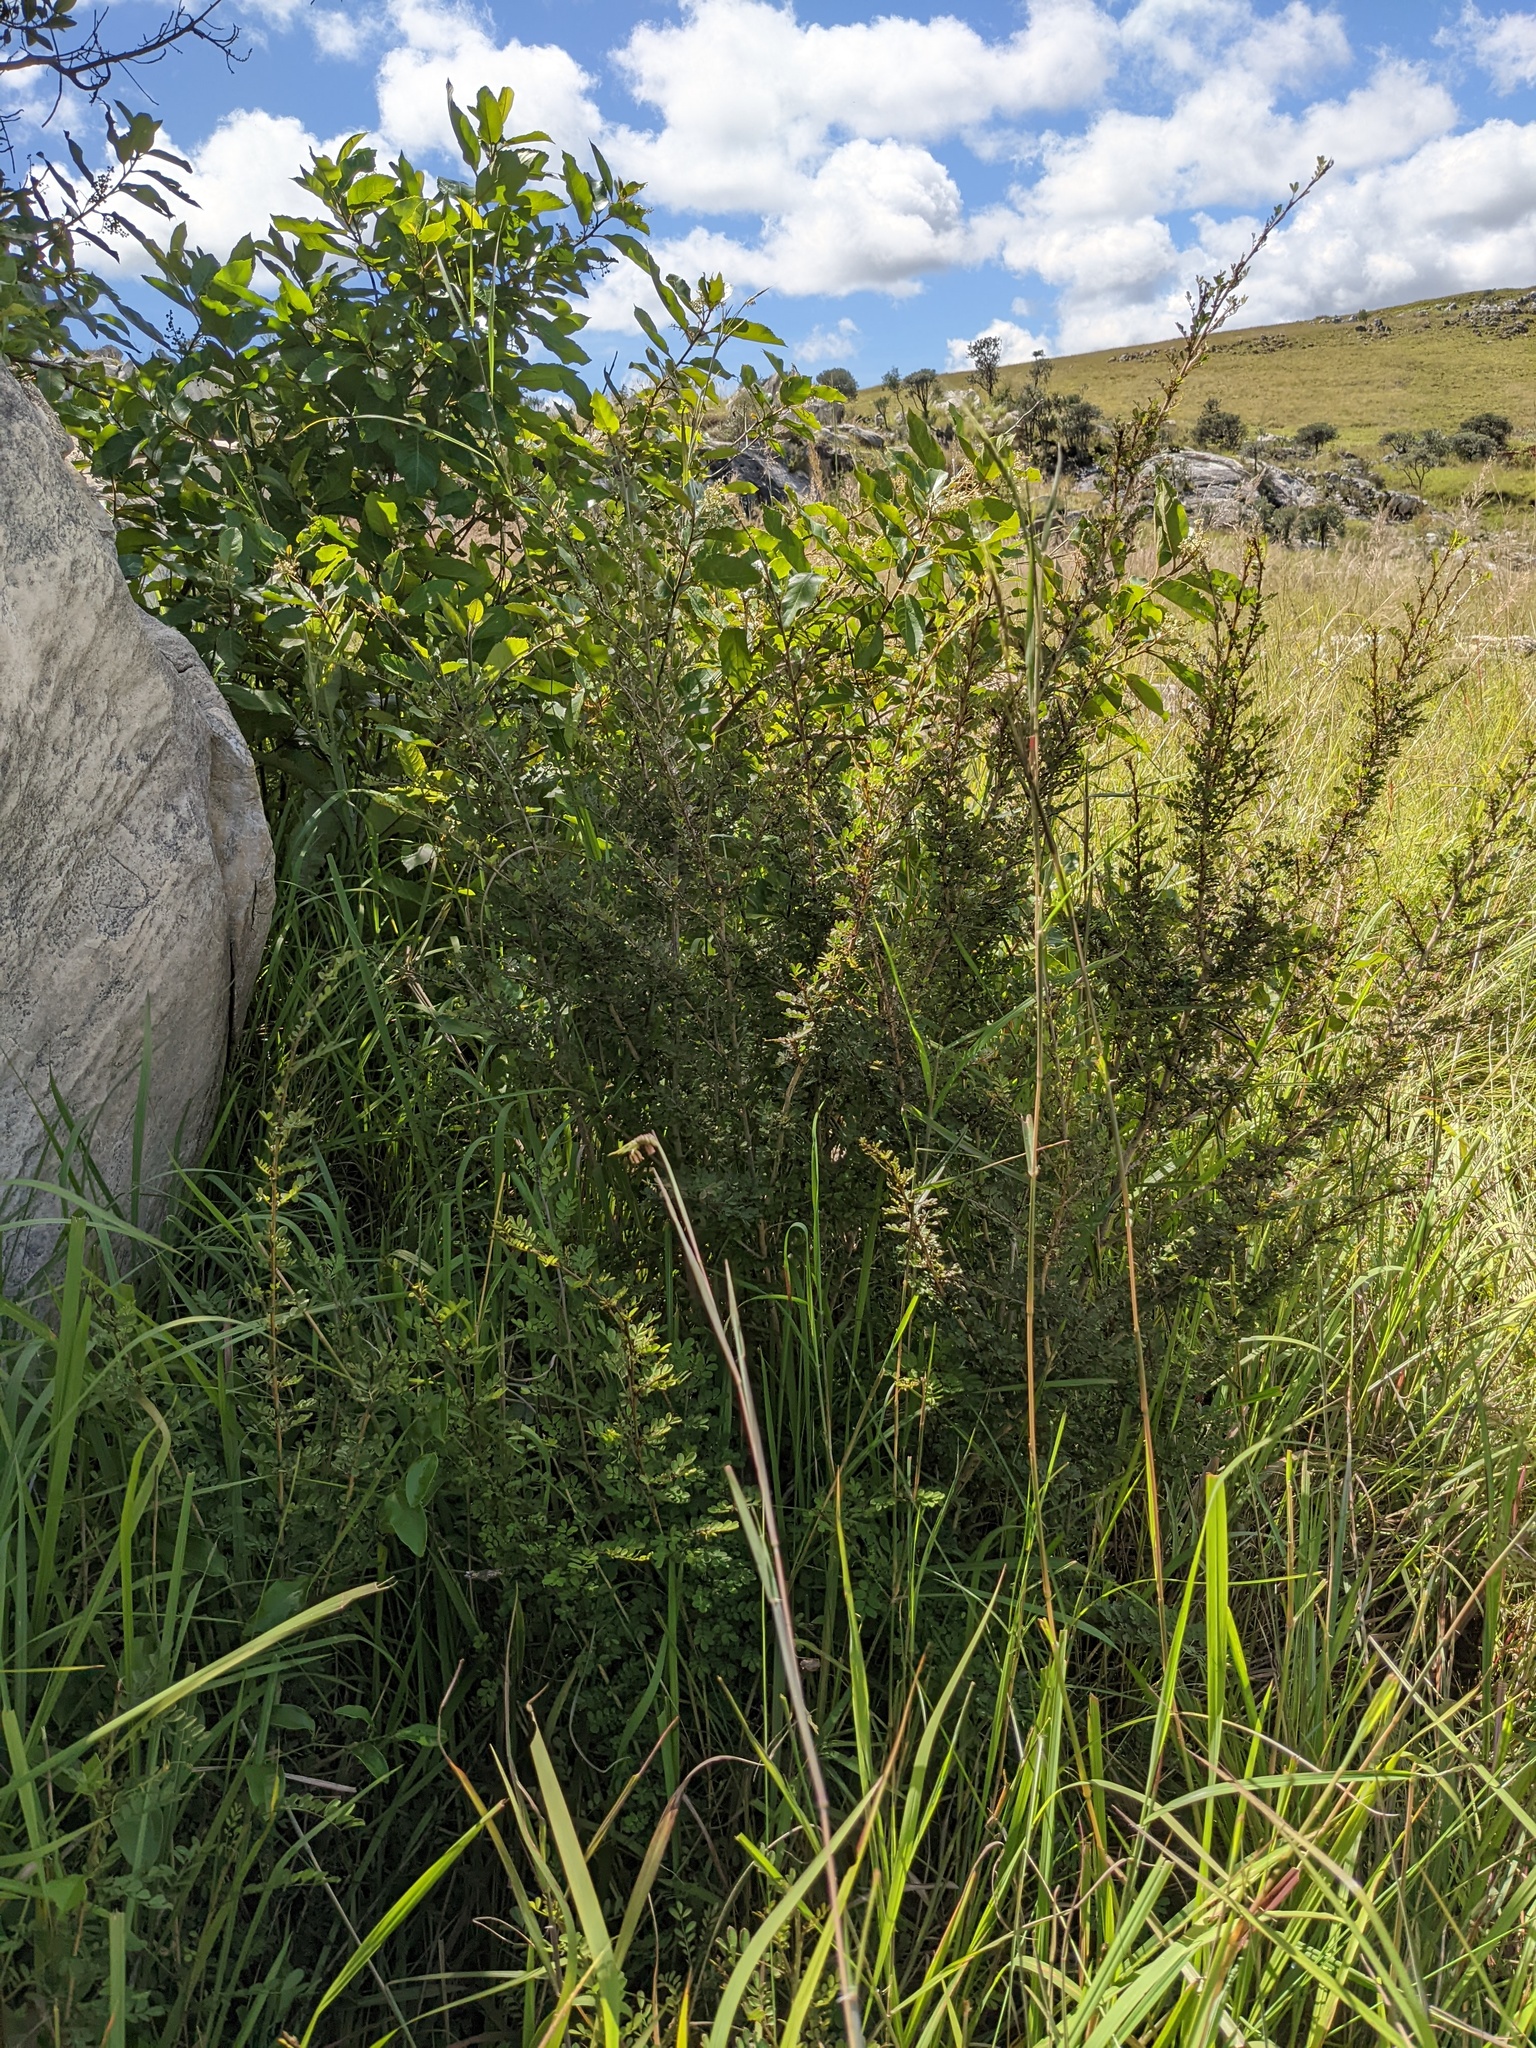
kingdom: Plantae
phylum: Tracheophyta
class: Liliopsida
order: Poales
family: Poaceae
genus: Heteropogon
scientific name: Heteropogon melanocarpus
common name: Sweet tanglehead
